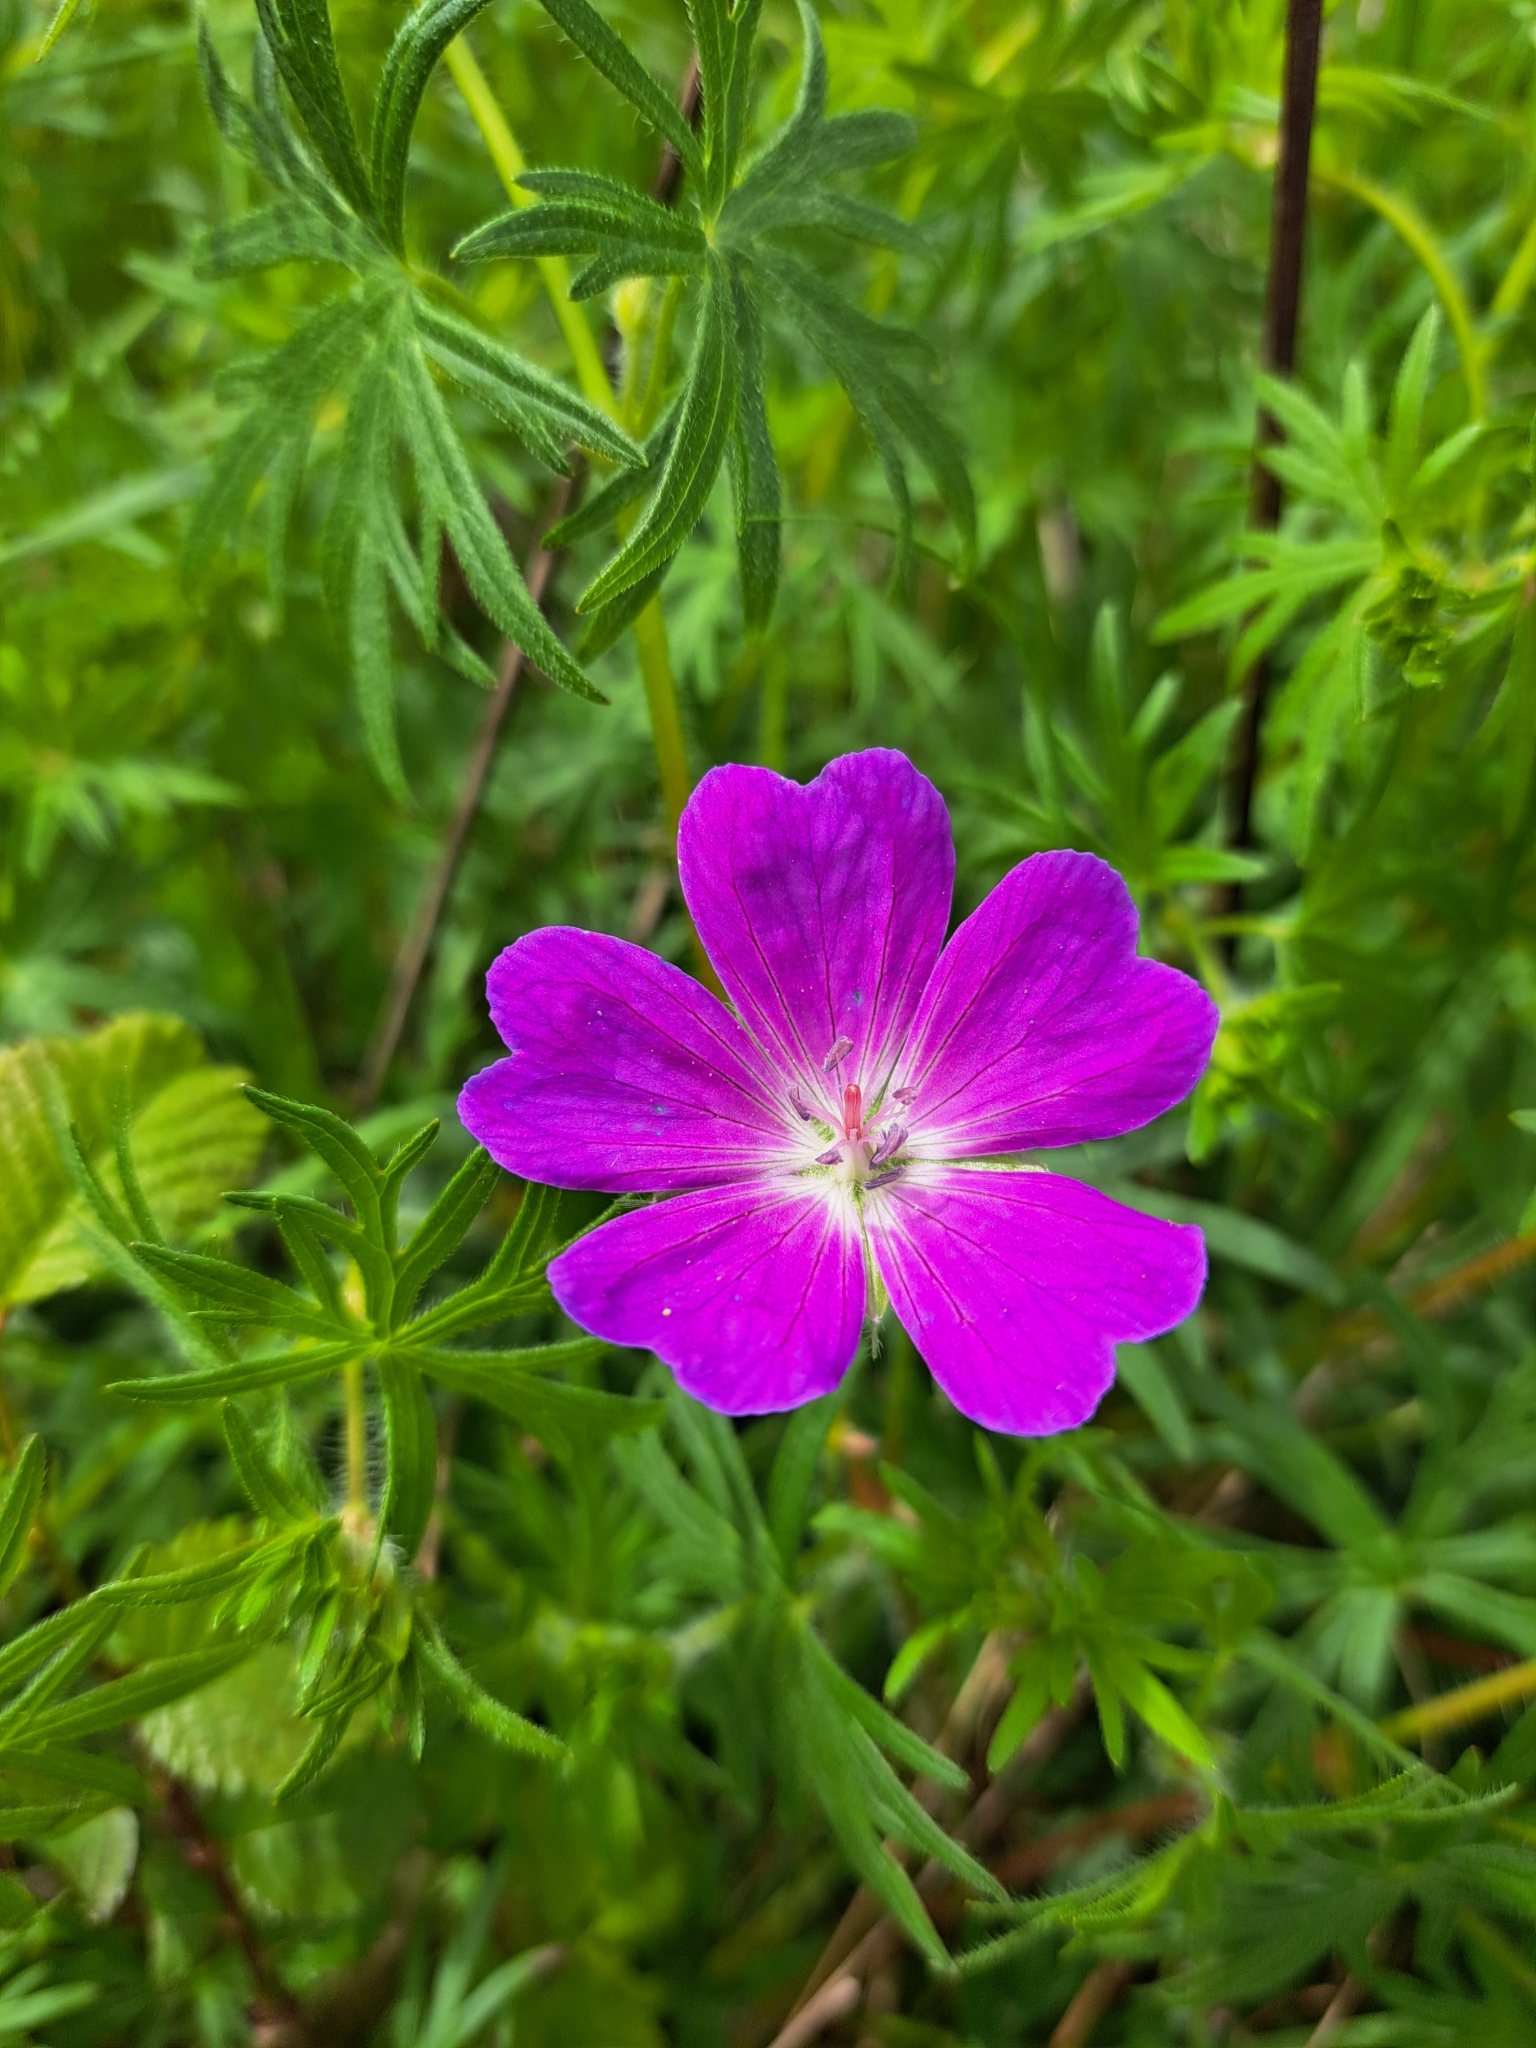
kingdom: Plantae
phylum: Tracheophyta
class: Magnoliopsida
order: Geraniales
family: Geraniaceae
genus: Geranium
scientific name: Geranium sanguineum
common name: Bloody crane's-bill
